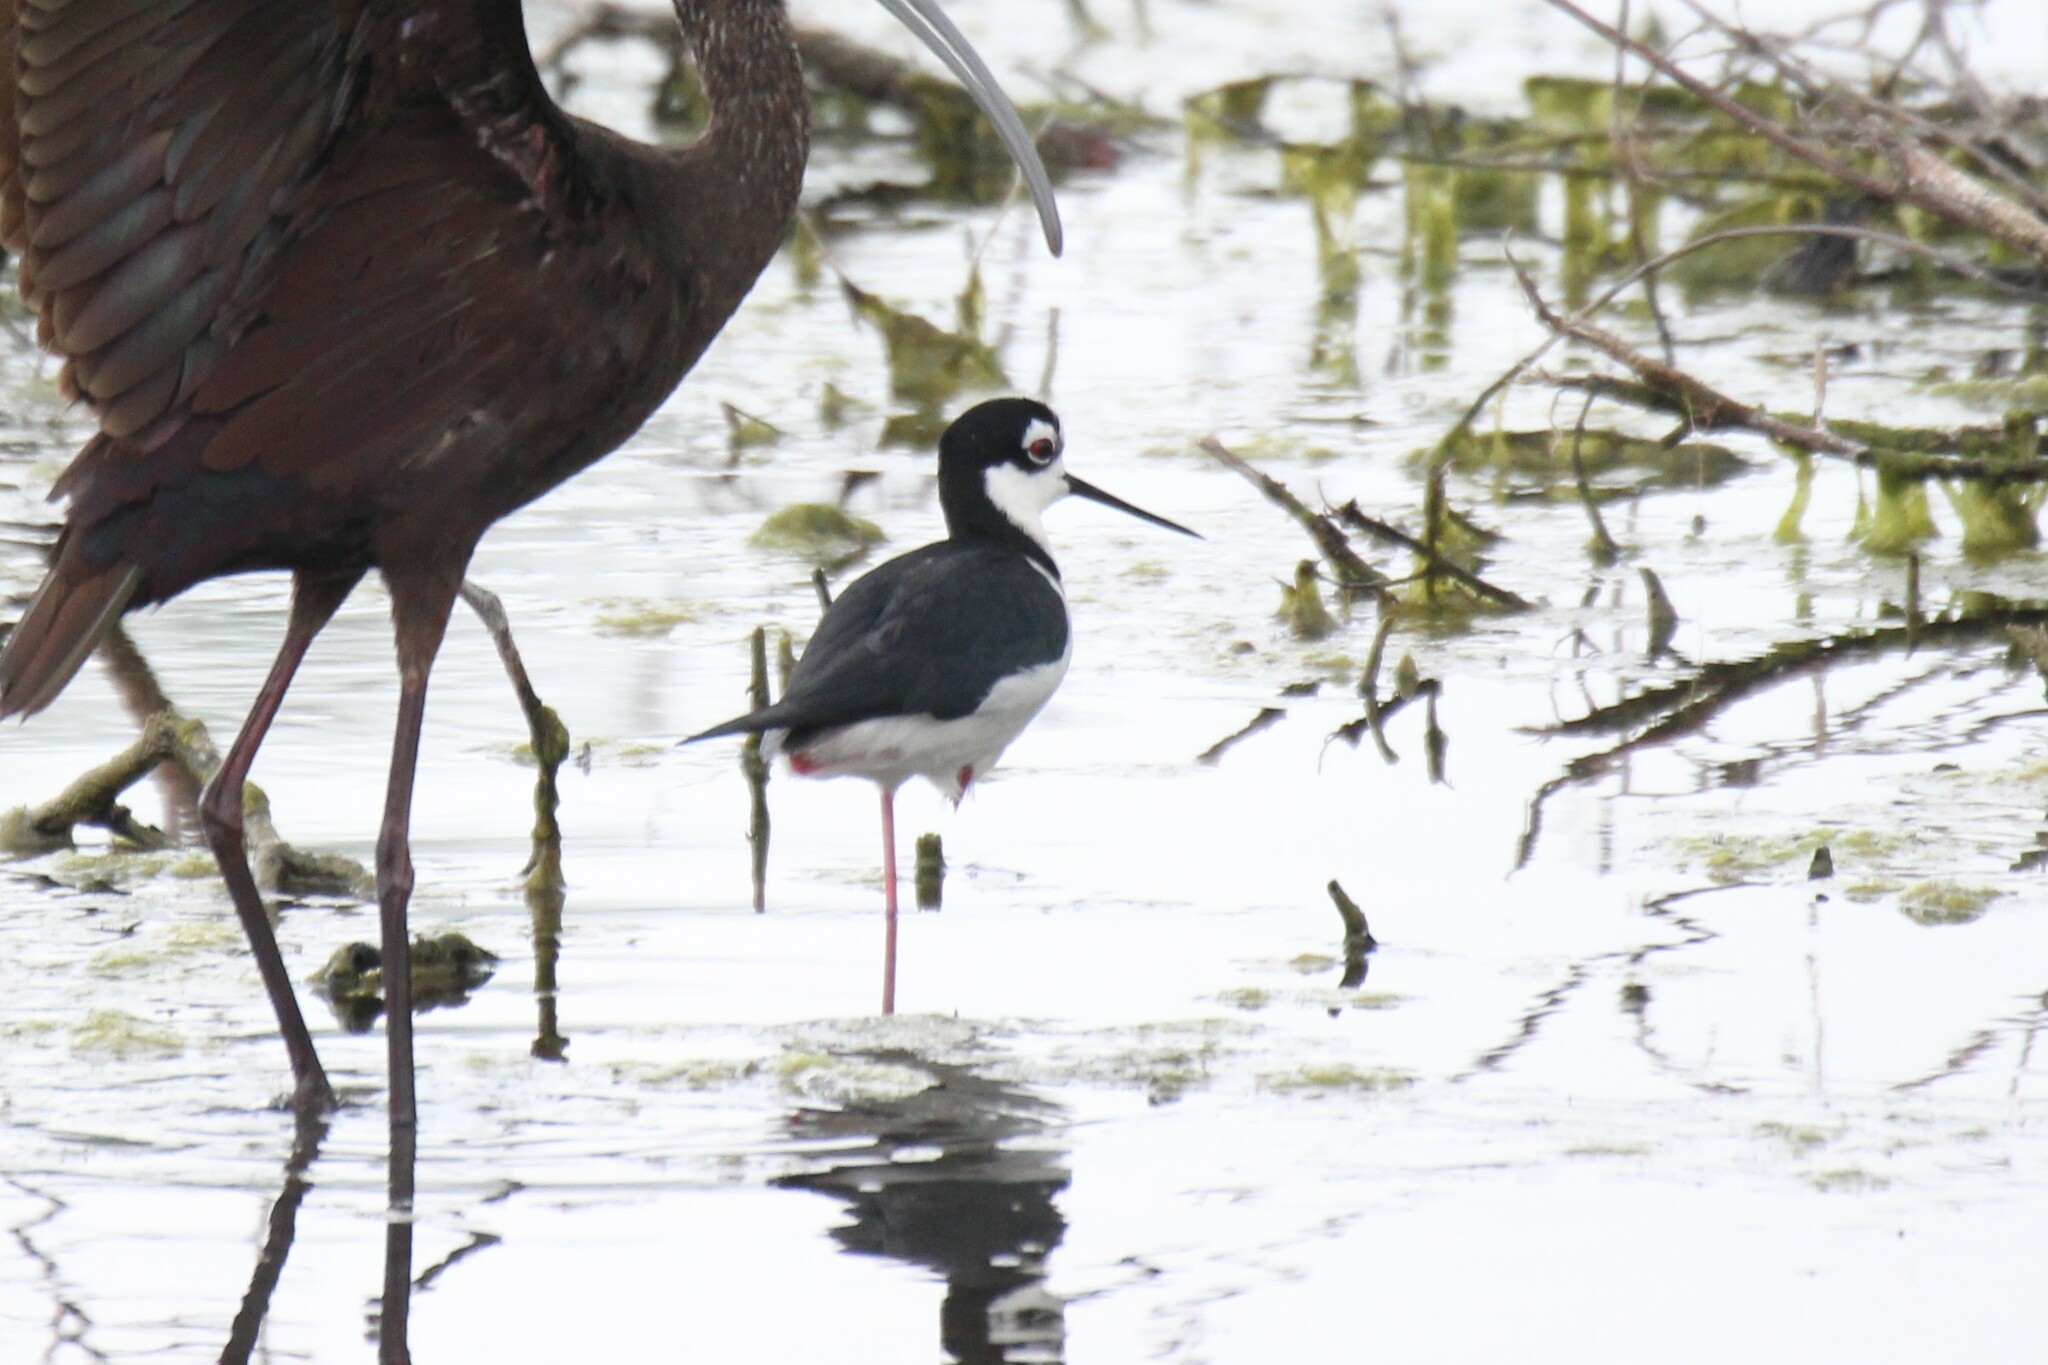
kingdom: Animalia
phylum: Chordata
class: Aves
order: Charadriiformes
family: Recurvirostridae
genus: Himantopus
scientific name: Himantopus mexicanus
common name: Black-necked stilt
